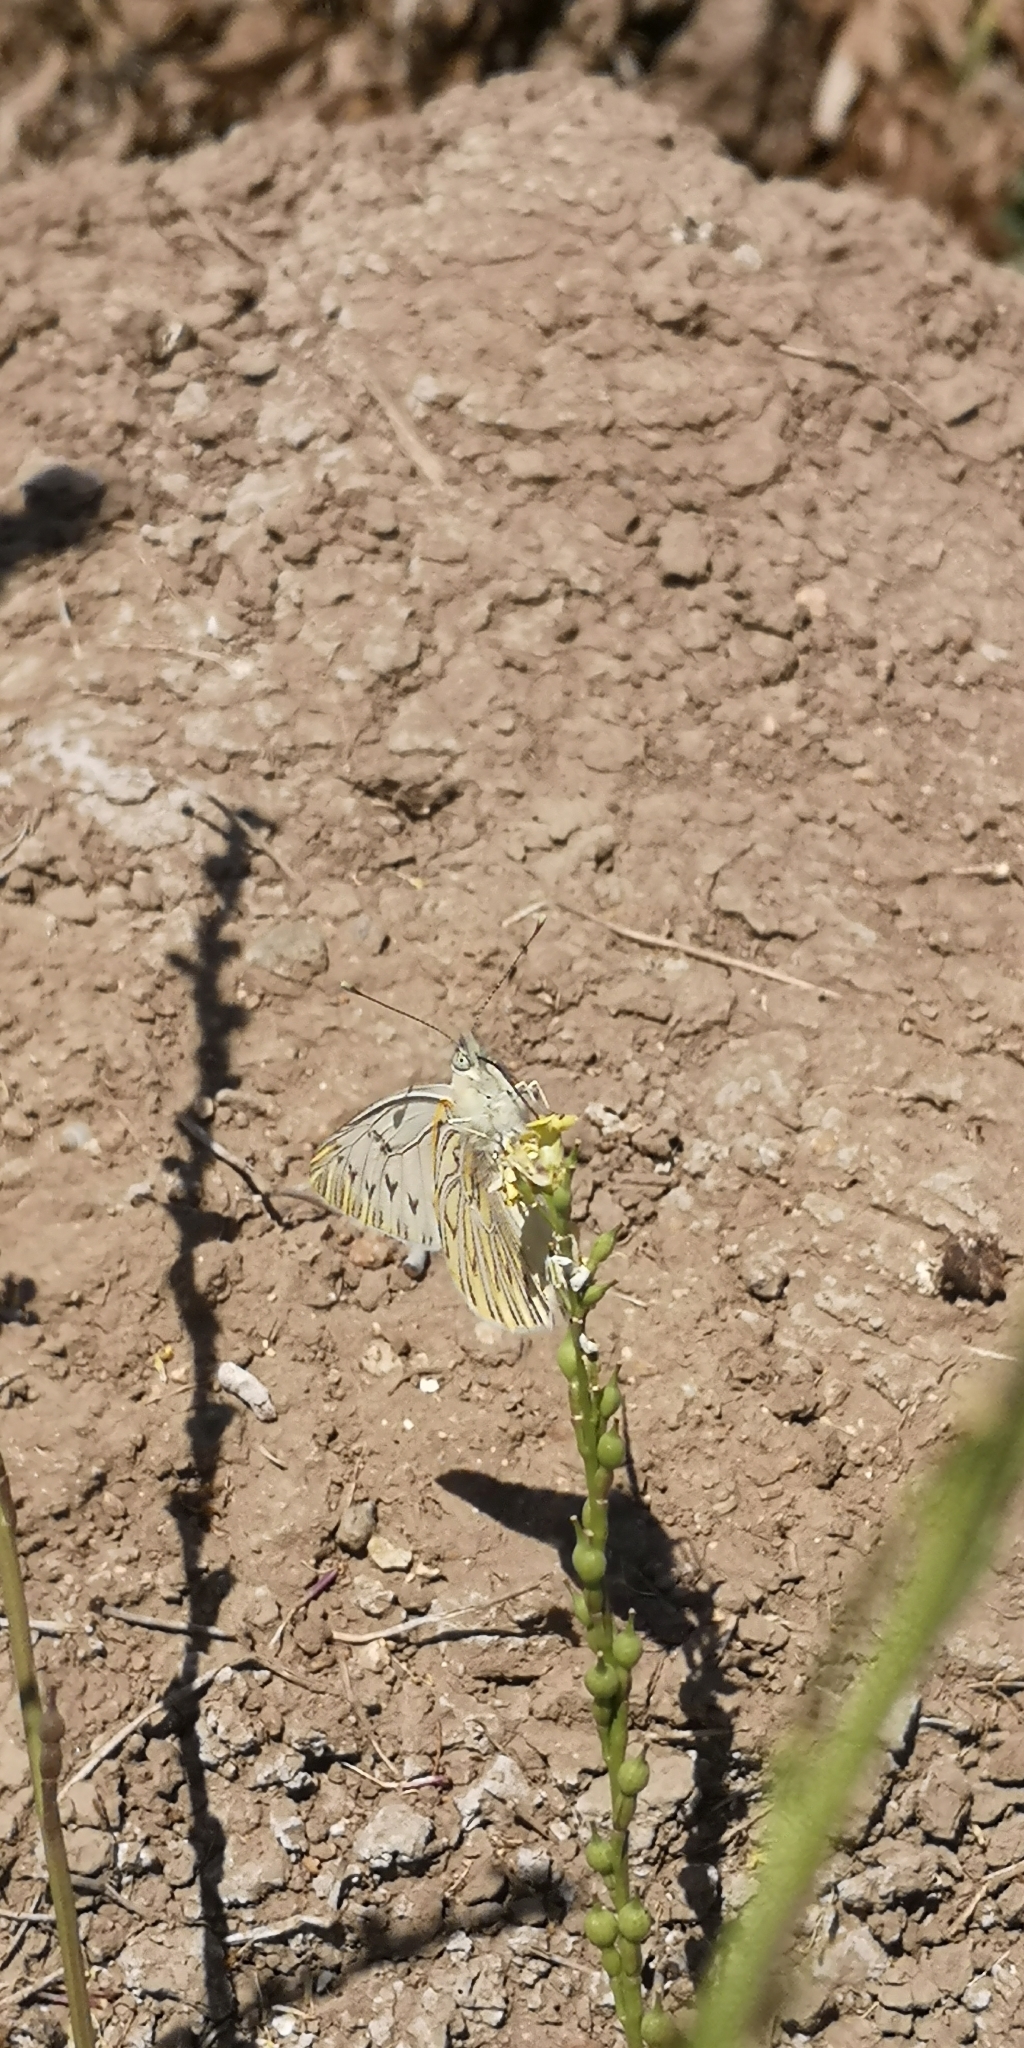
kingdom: Animalia
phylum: Arthropoda
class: Insecta
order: Lepidoptera
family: Pieridae
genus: Tatochila
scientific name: Tatochila mercedis
